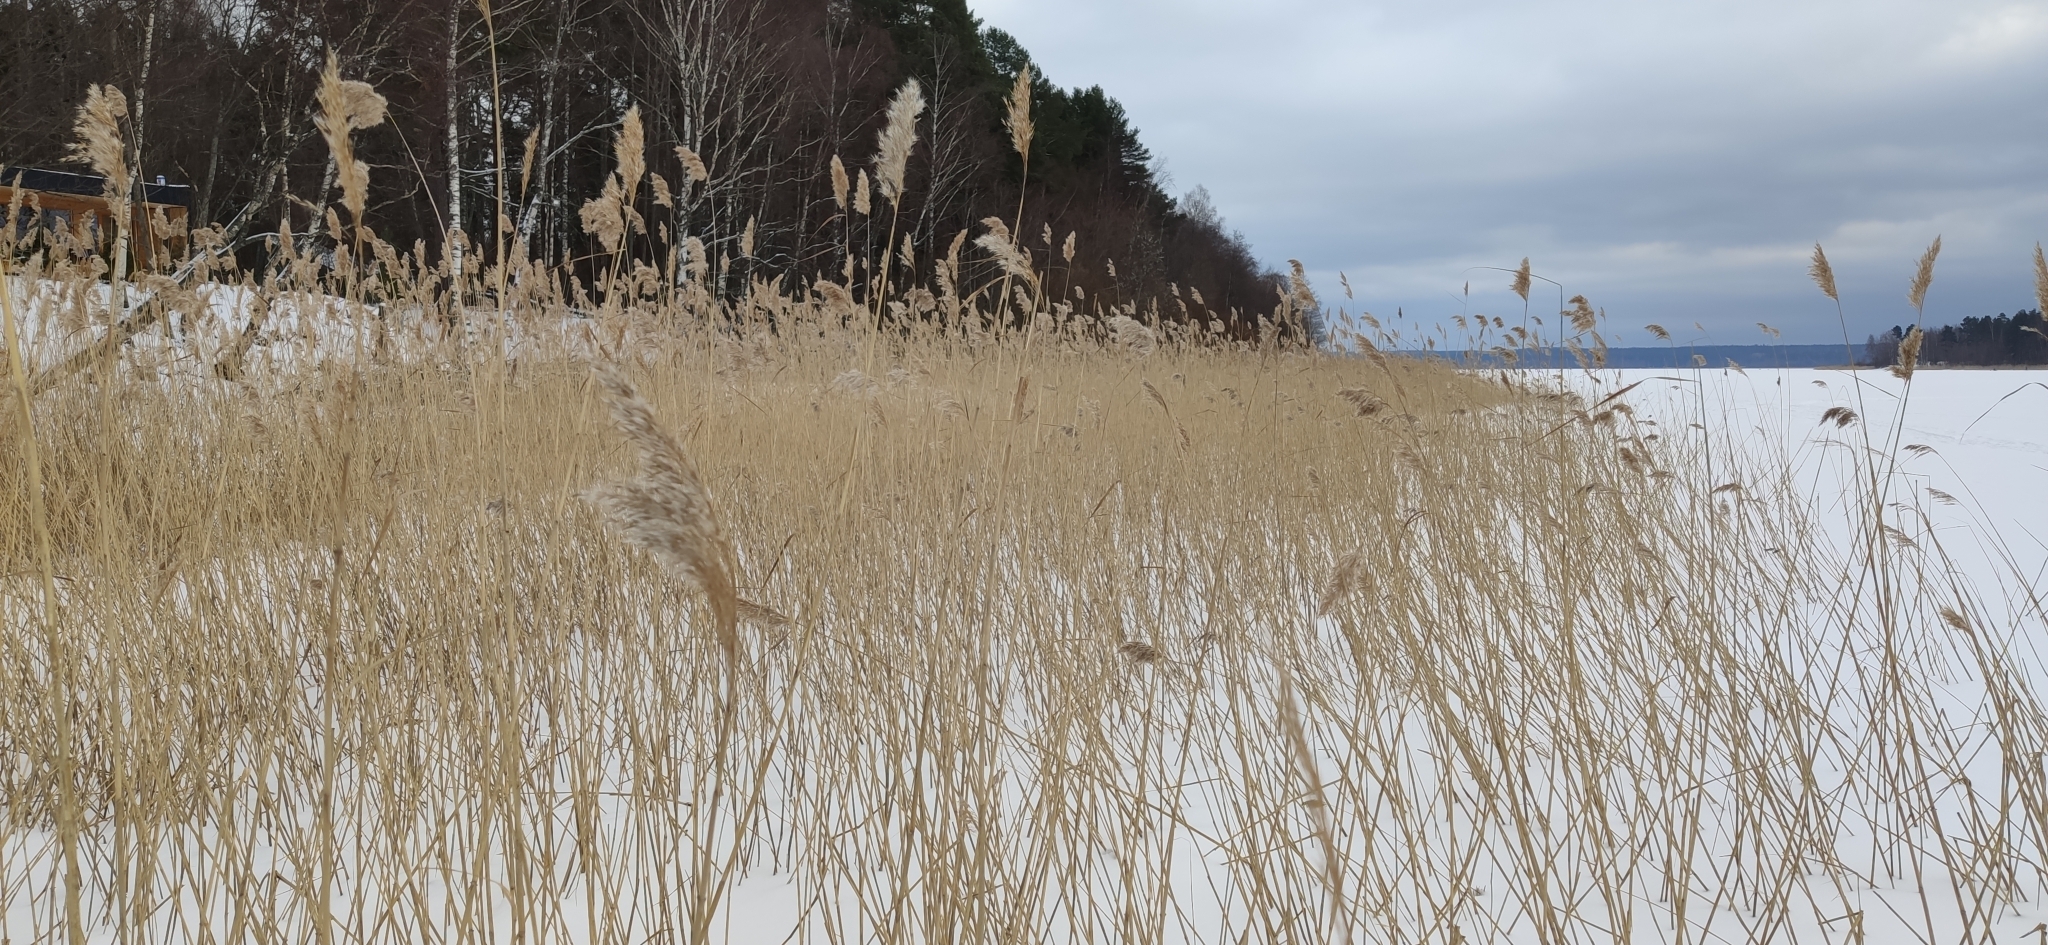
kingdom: Plantae
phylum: Tracheophyta
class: Liliopsida
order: Poales
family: Poaceae
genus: Phragmites
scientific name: Phragmites australis
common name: Common reed
